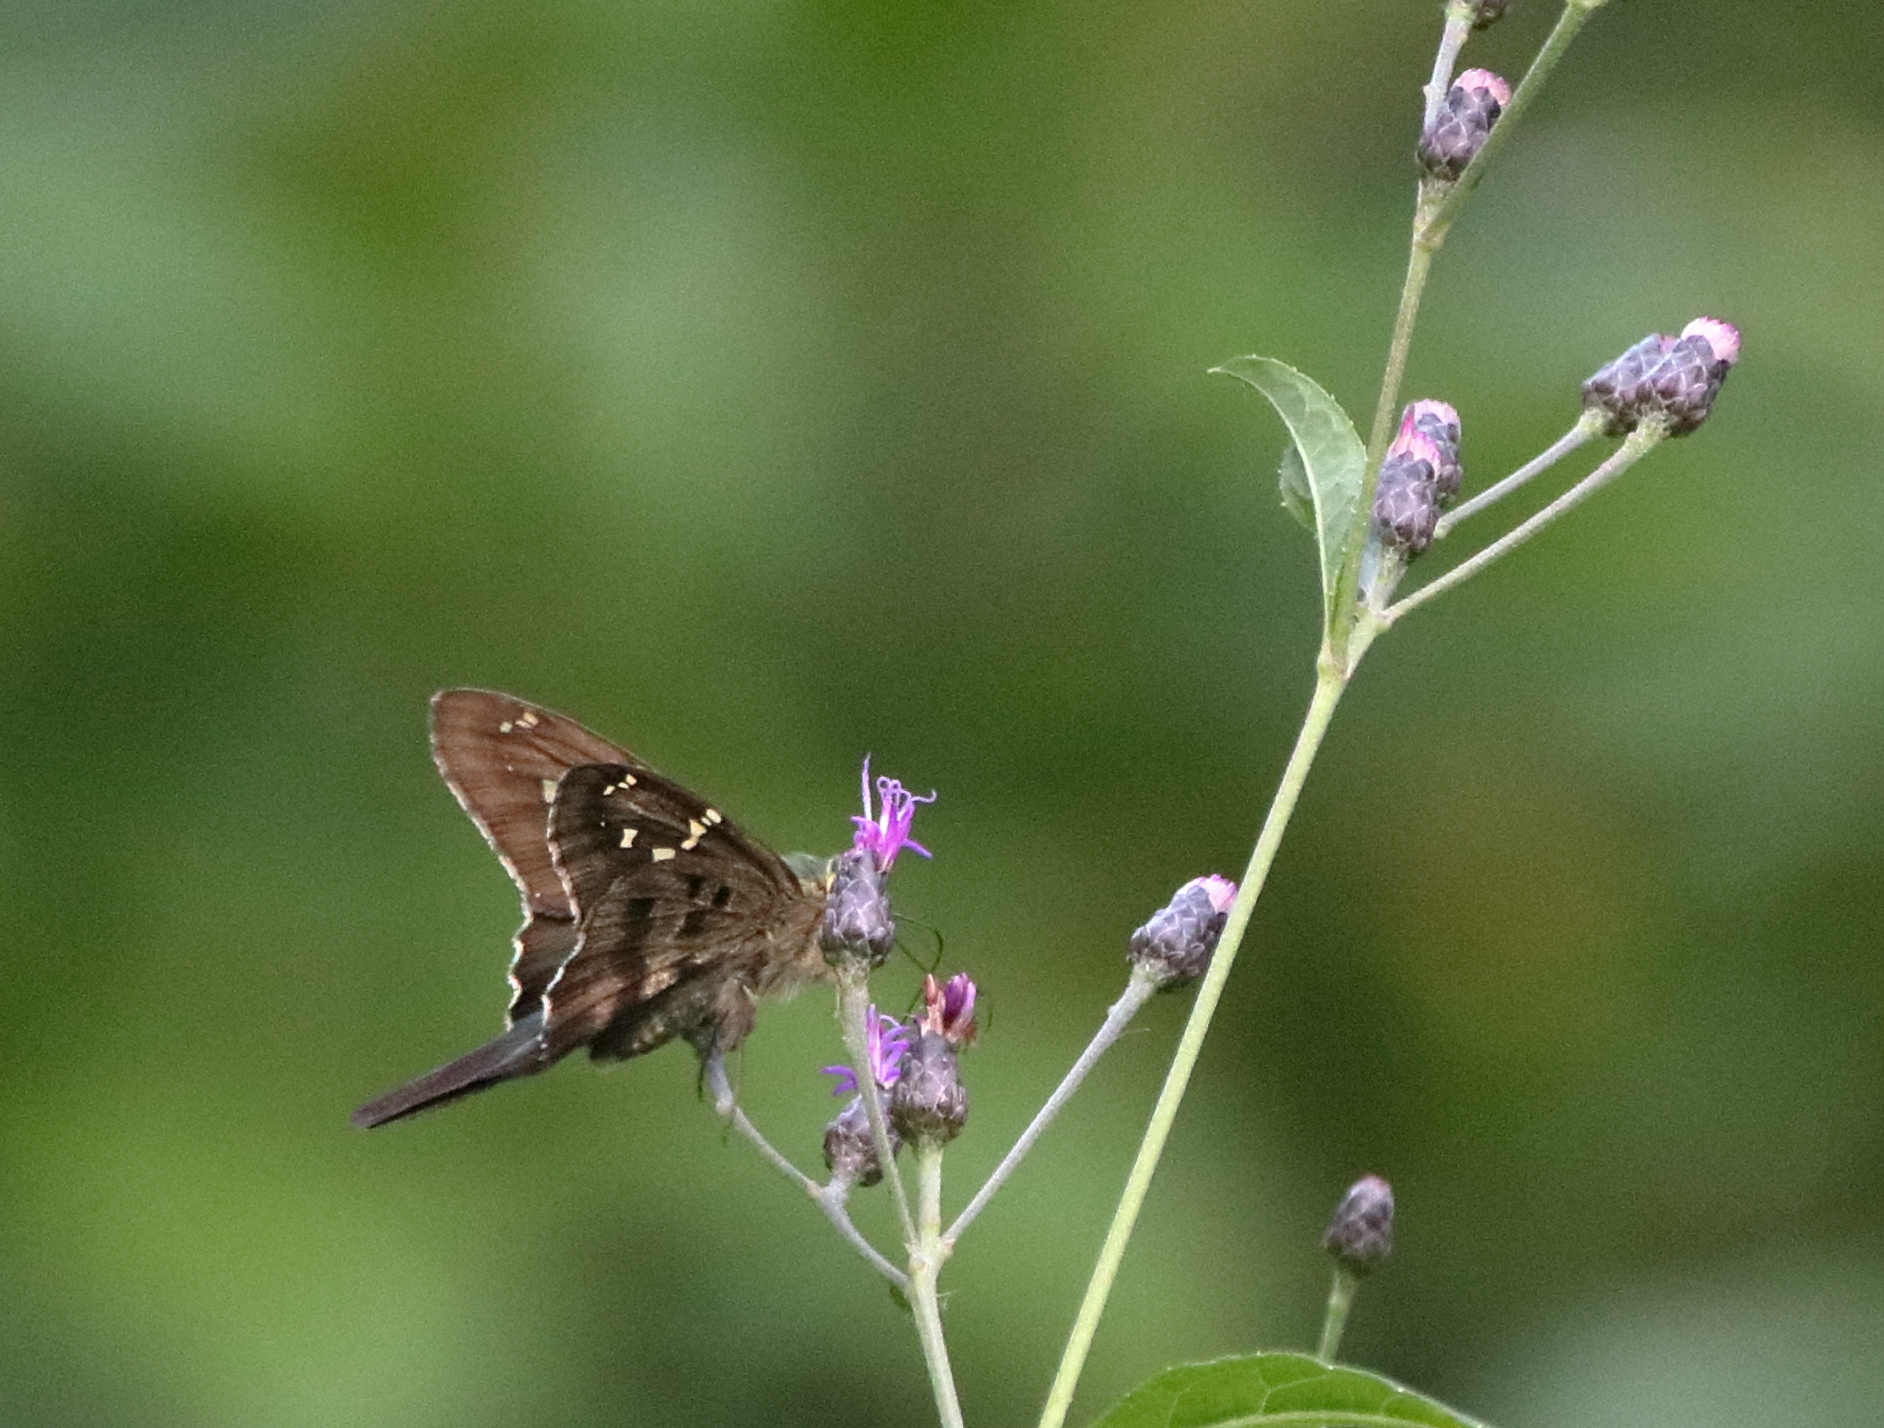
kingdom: Animalia
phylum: Arthropoda
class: Insecta
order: Lepidoptera
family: Hesperiidae
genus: Urbanus
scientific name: Urbanus proteus
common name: Long-tailed skipper
